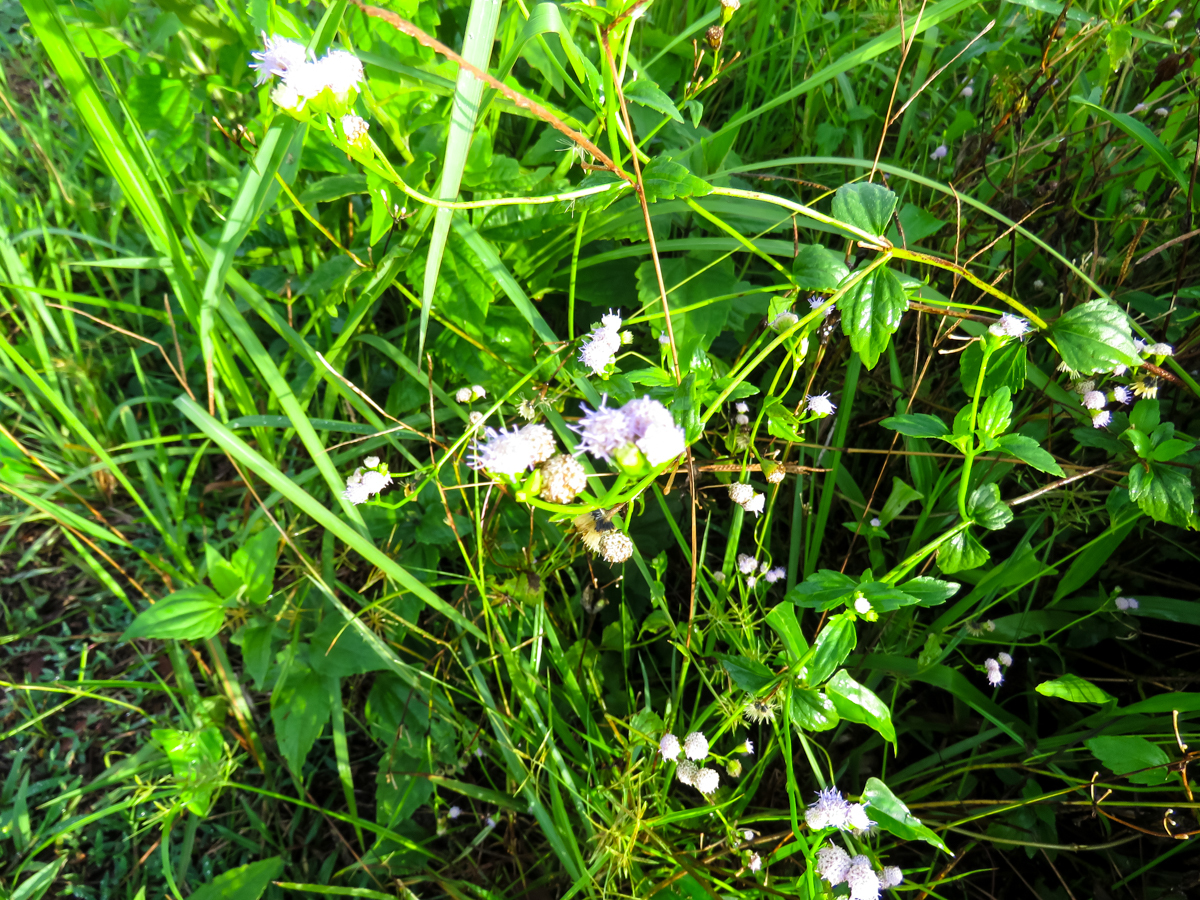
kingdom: Plantae
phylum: Tracheophyta
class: Magnoliopsida
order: Asterales
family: Asteraceae
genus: Chromolaena
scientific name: Chromolaena odorata
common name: Siamweed
